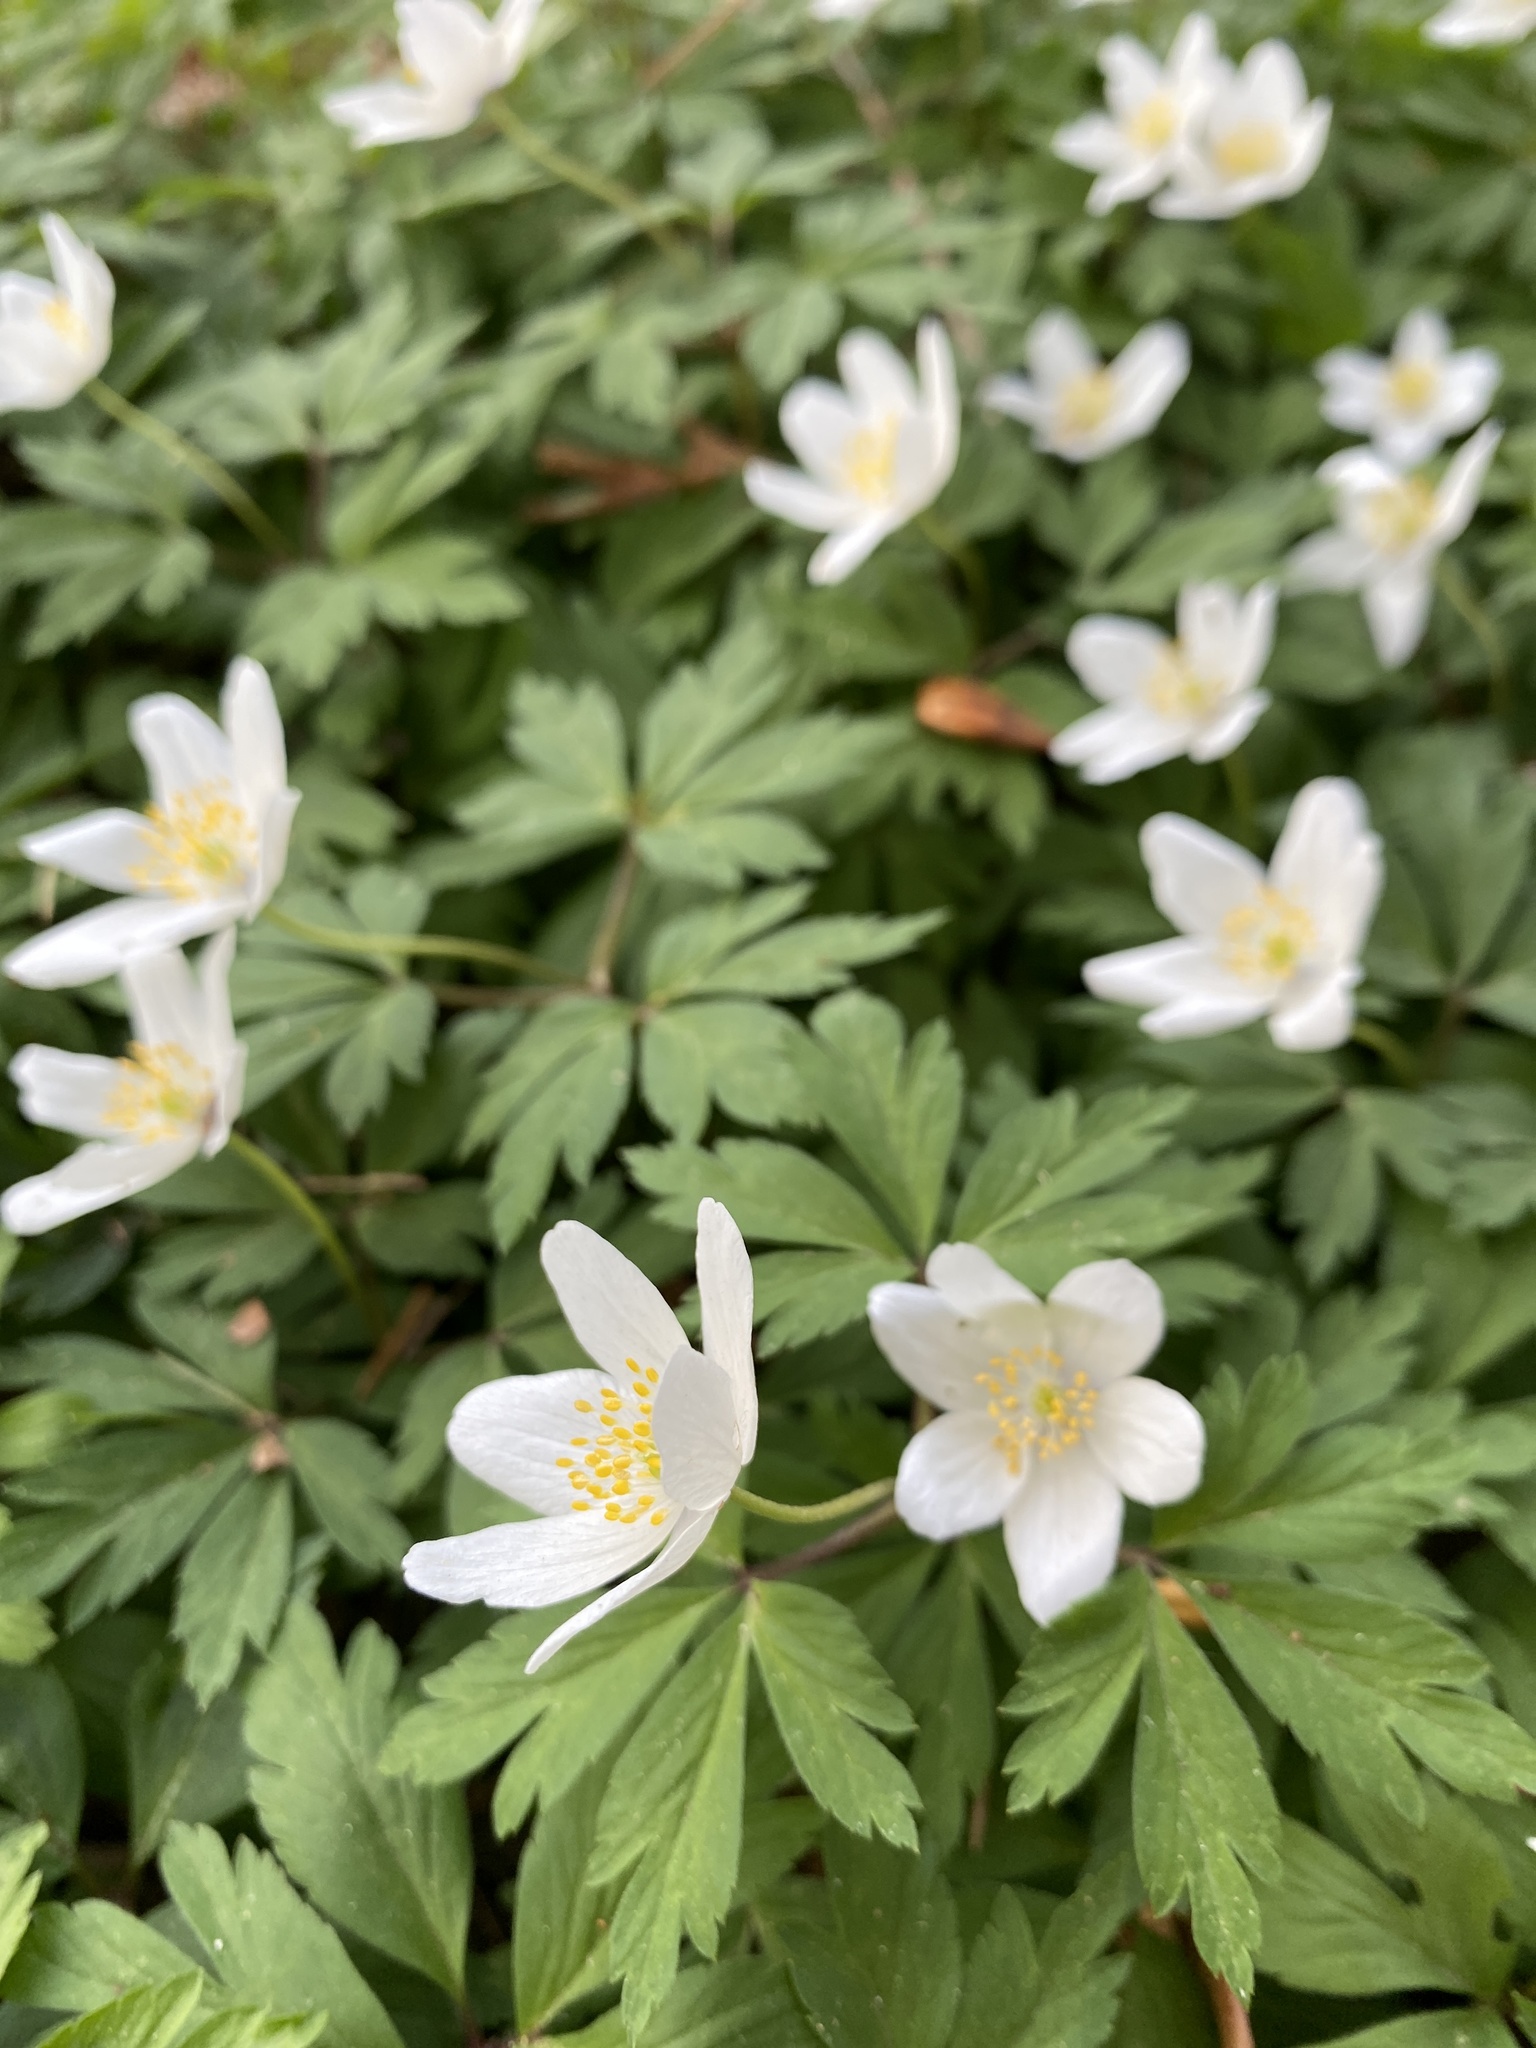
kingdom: Plantae
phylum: Tracheophyta
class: Magnoliopsida
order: Ranunculales
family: Ranunculaceae
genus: Anemone
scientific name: Anemone nemorosa
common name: Wood anemone
